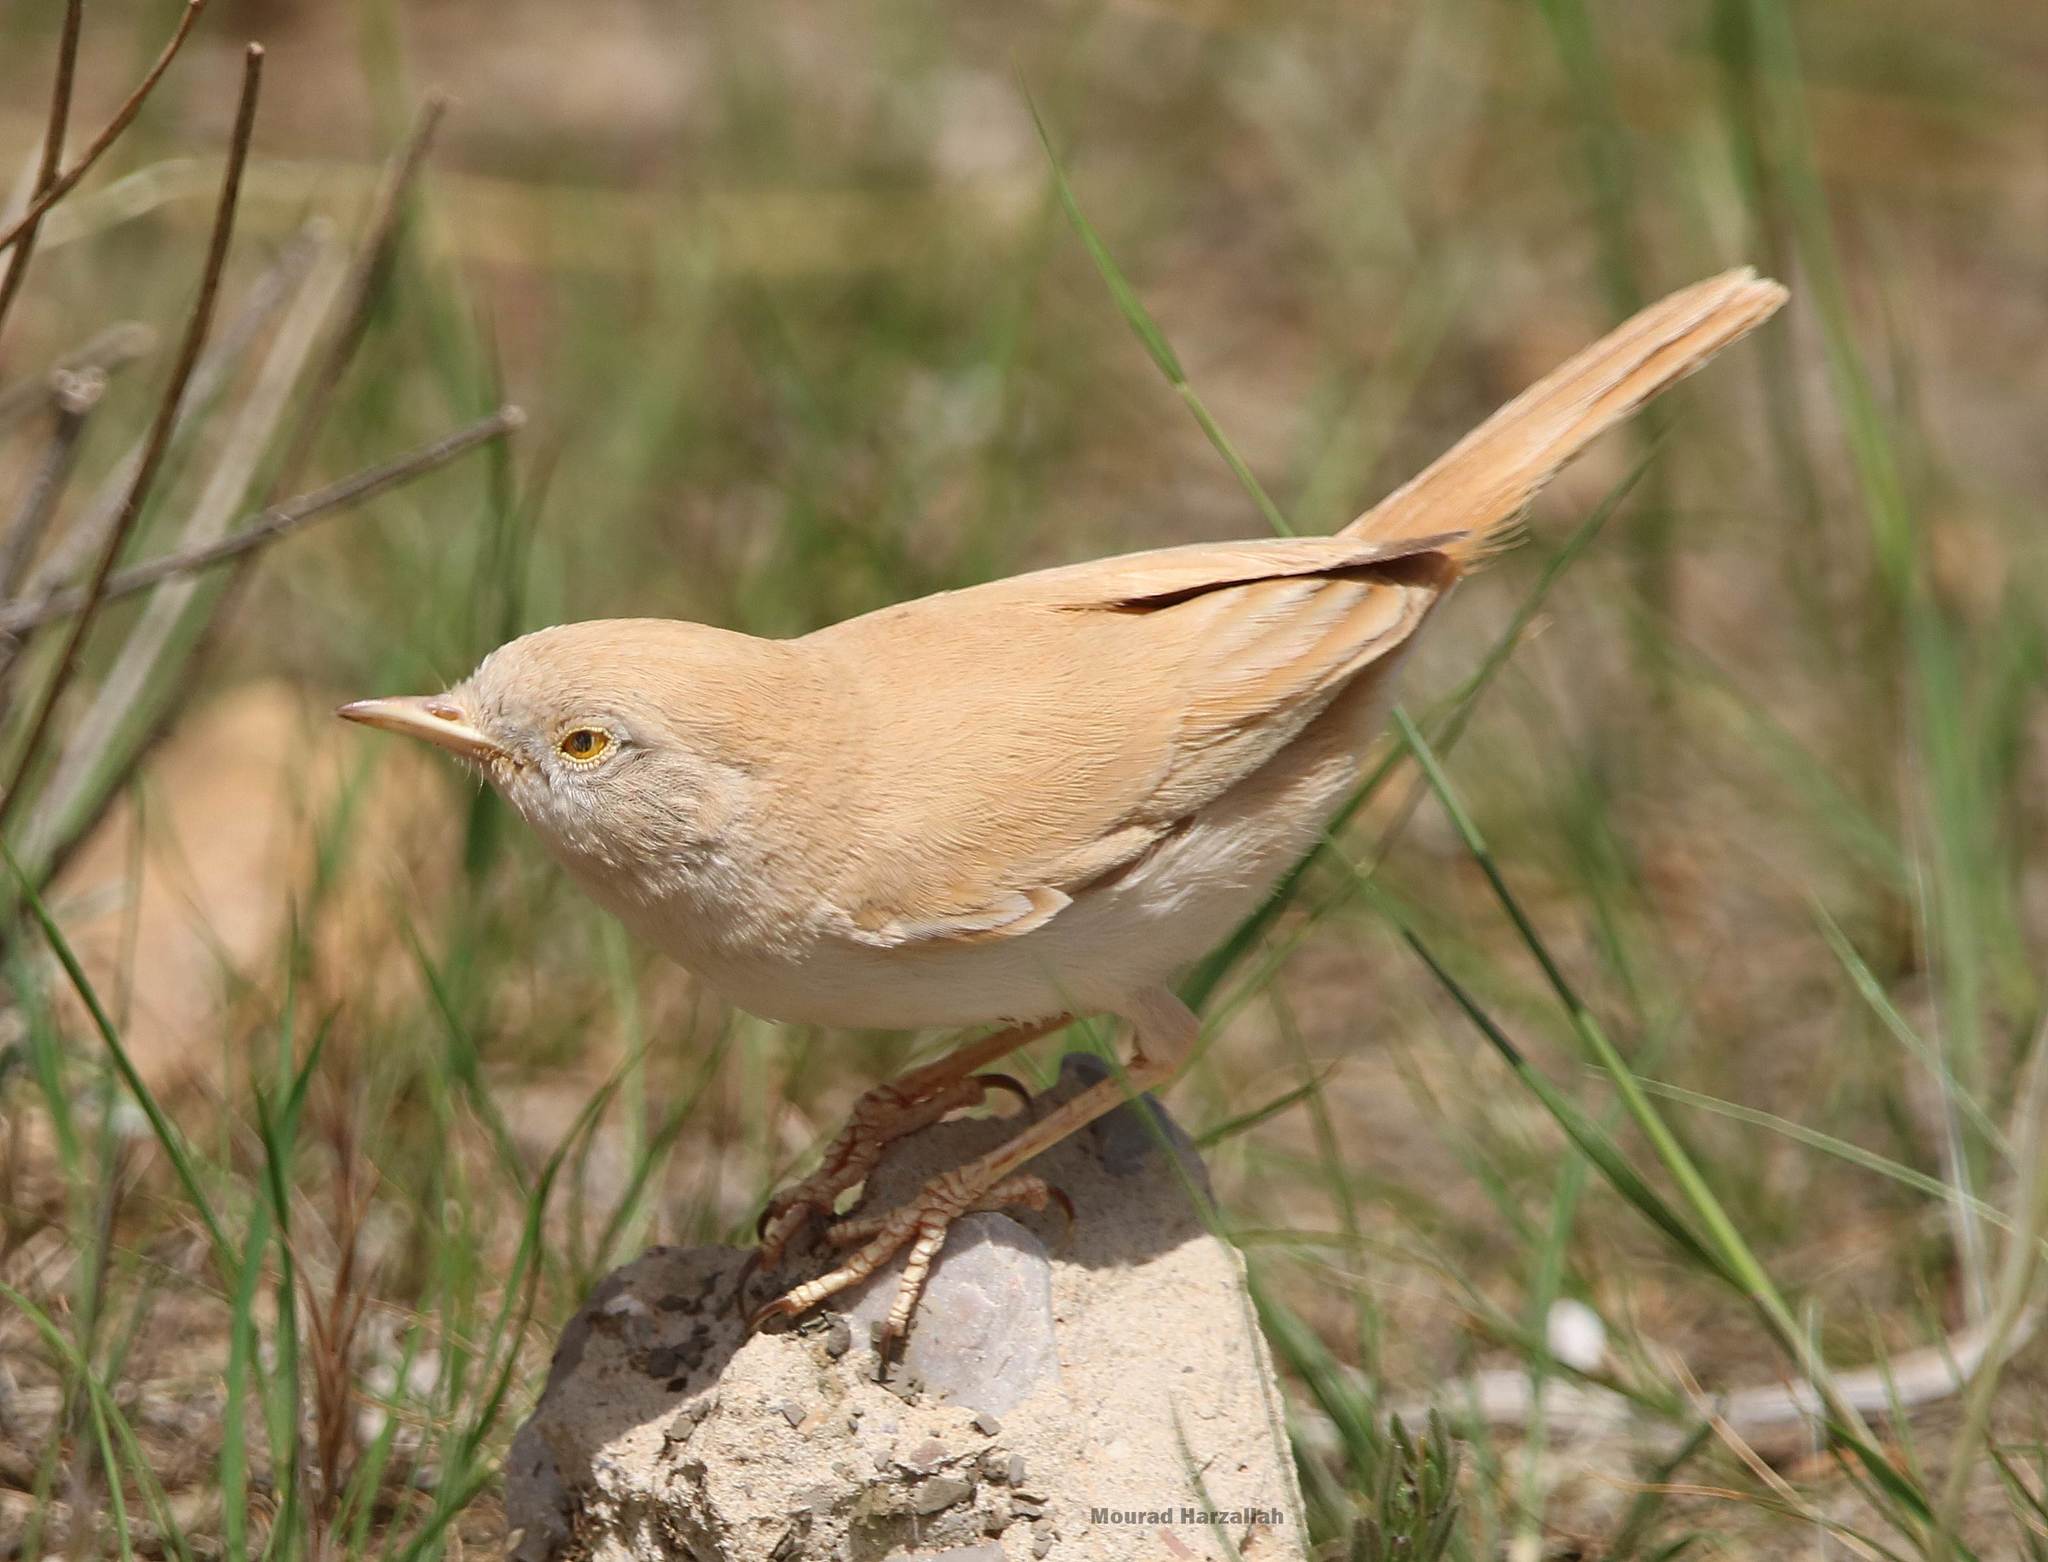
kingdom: Animalia
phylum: Chordata
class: Aves
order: Passeriformes
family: Sylviidae
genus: Sylvia
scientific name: Sylvia deserti
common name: African desert warbler
